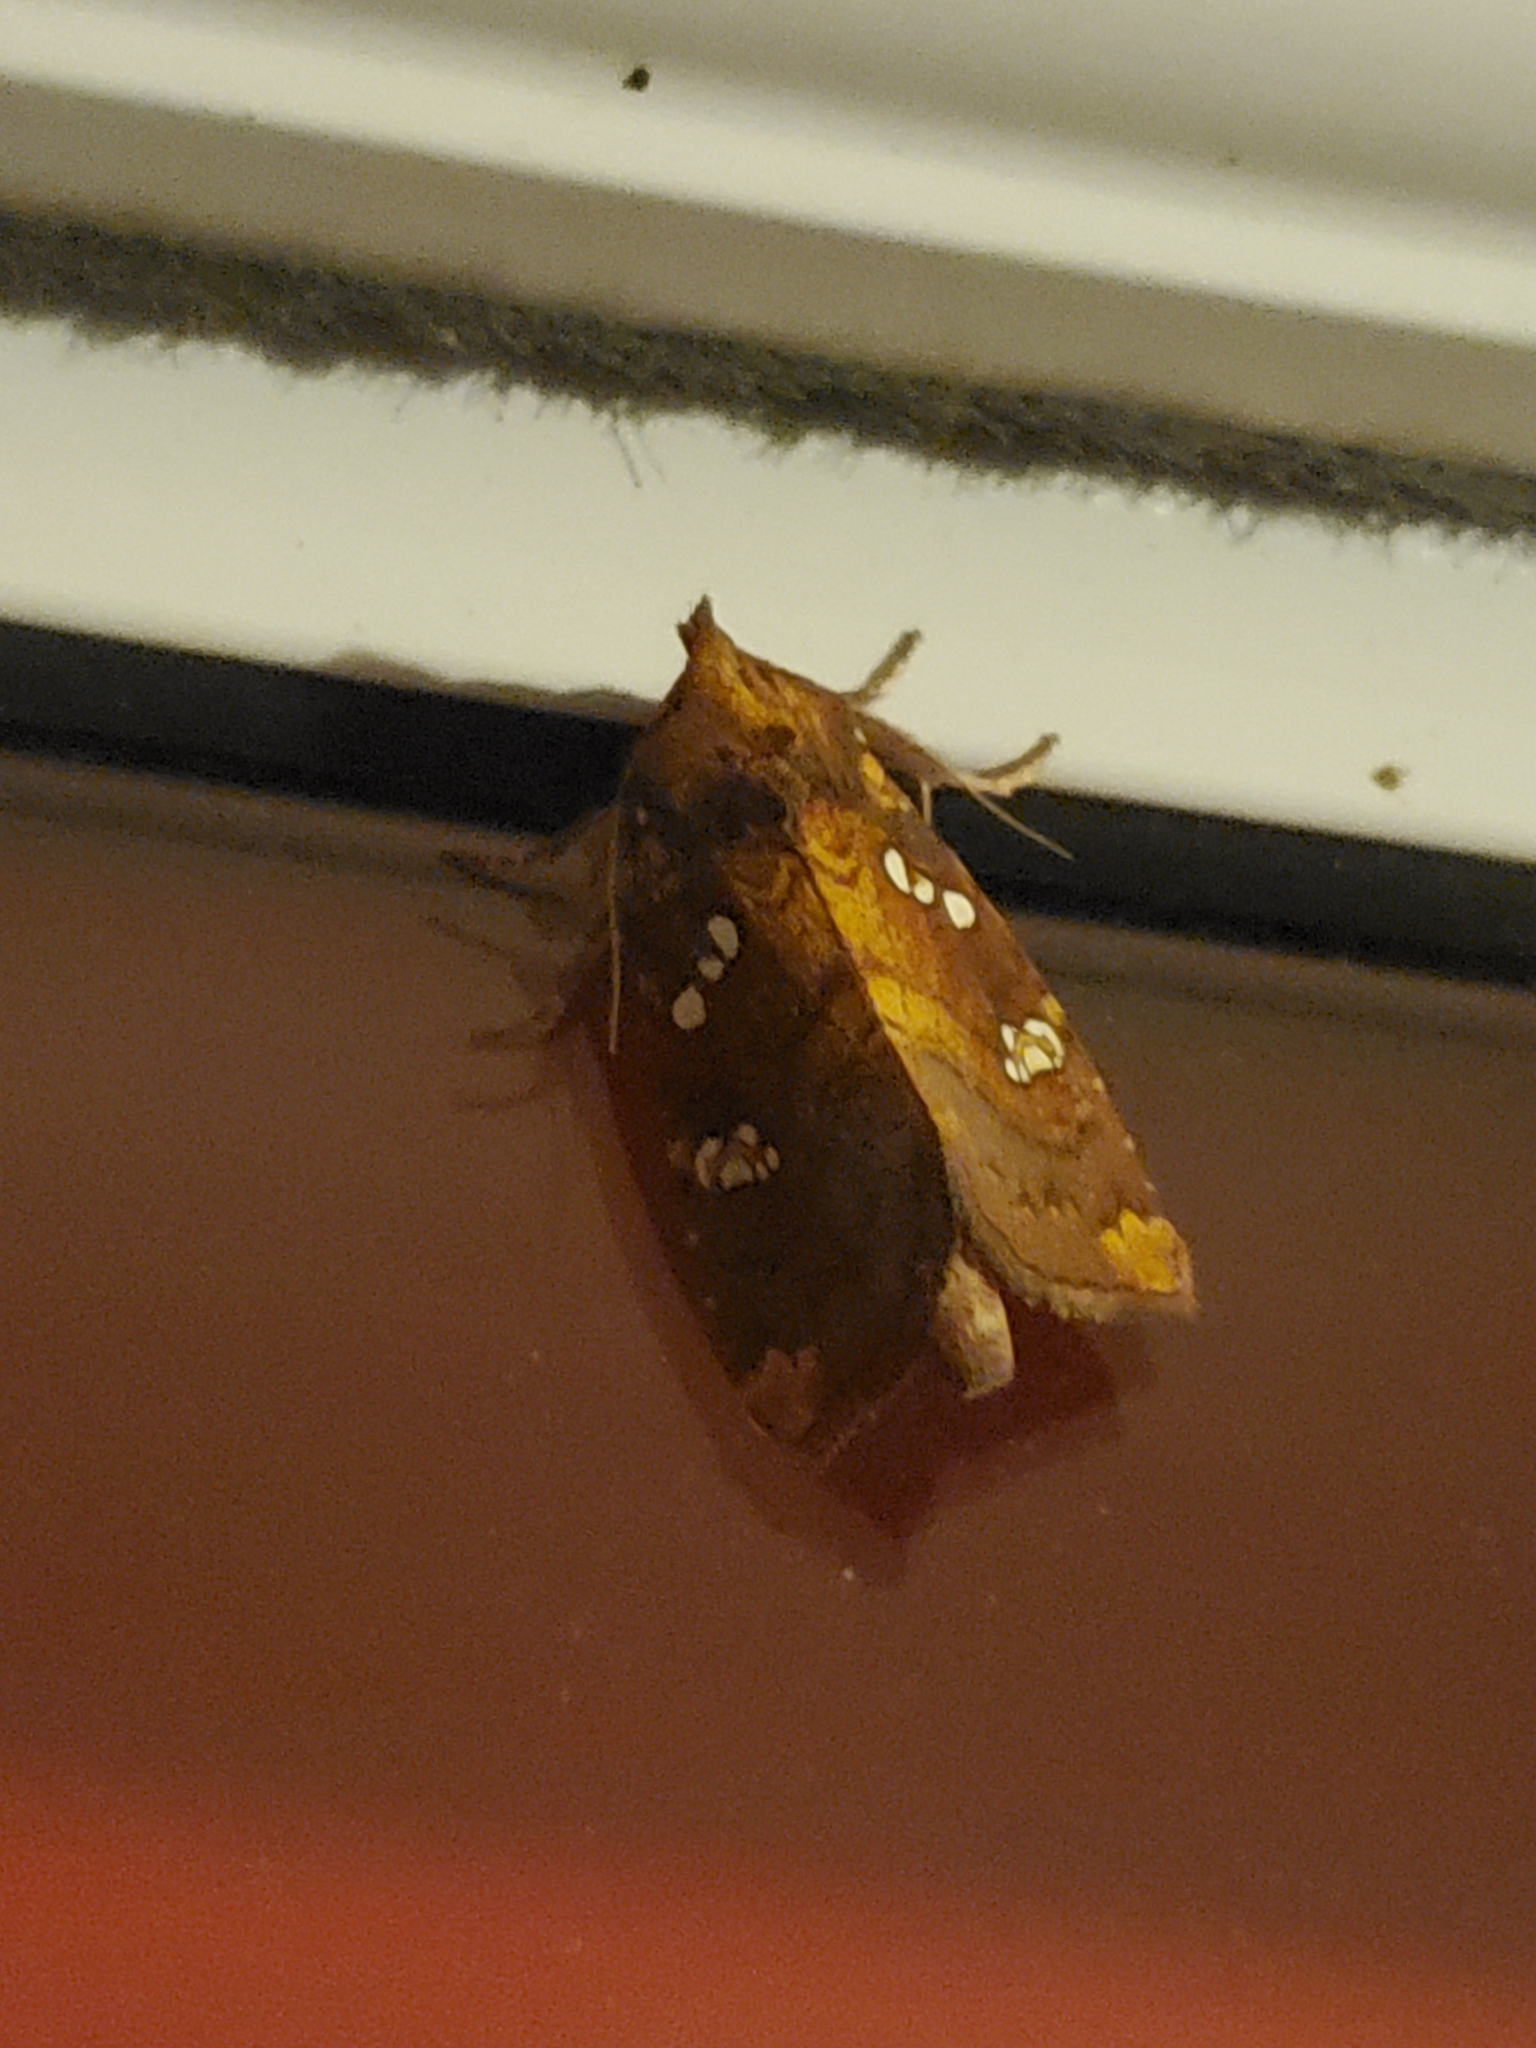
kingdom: Animalia
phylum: Arthropoda
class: Insecta
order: Lepidoptera
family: Noctuidae
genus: Papaipema
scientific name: Papaipema baptisiae
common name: Wild indigo borer moth
